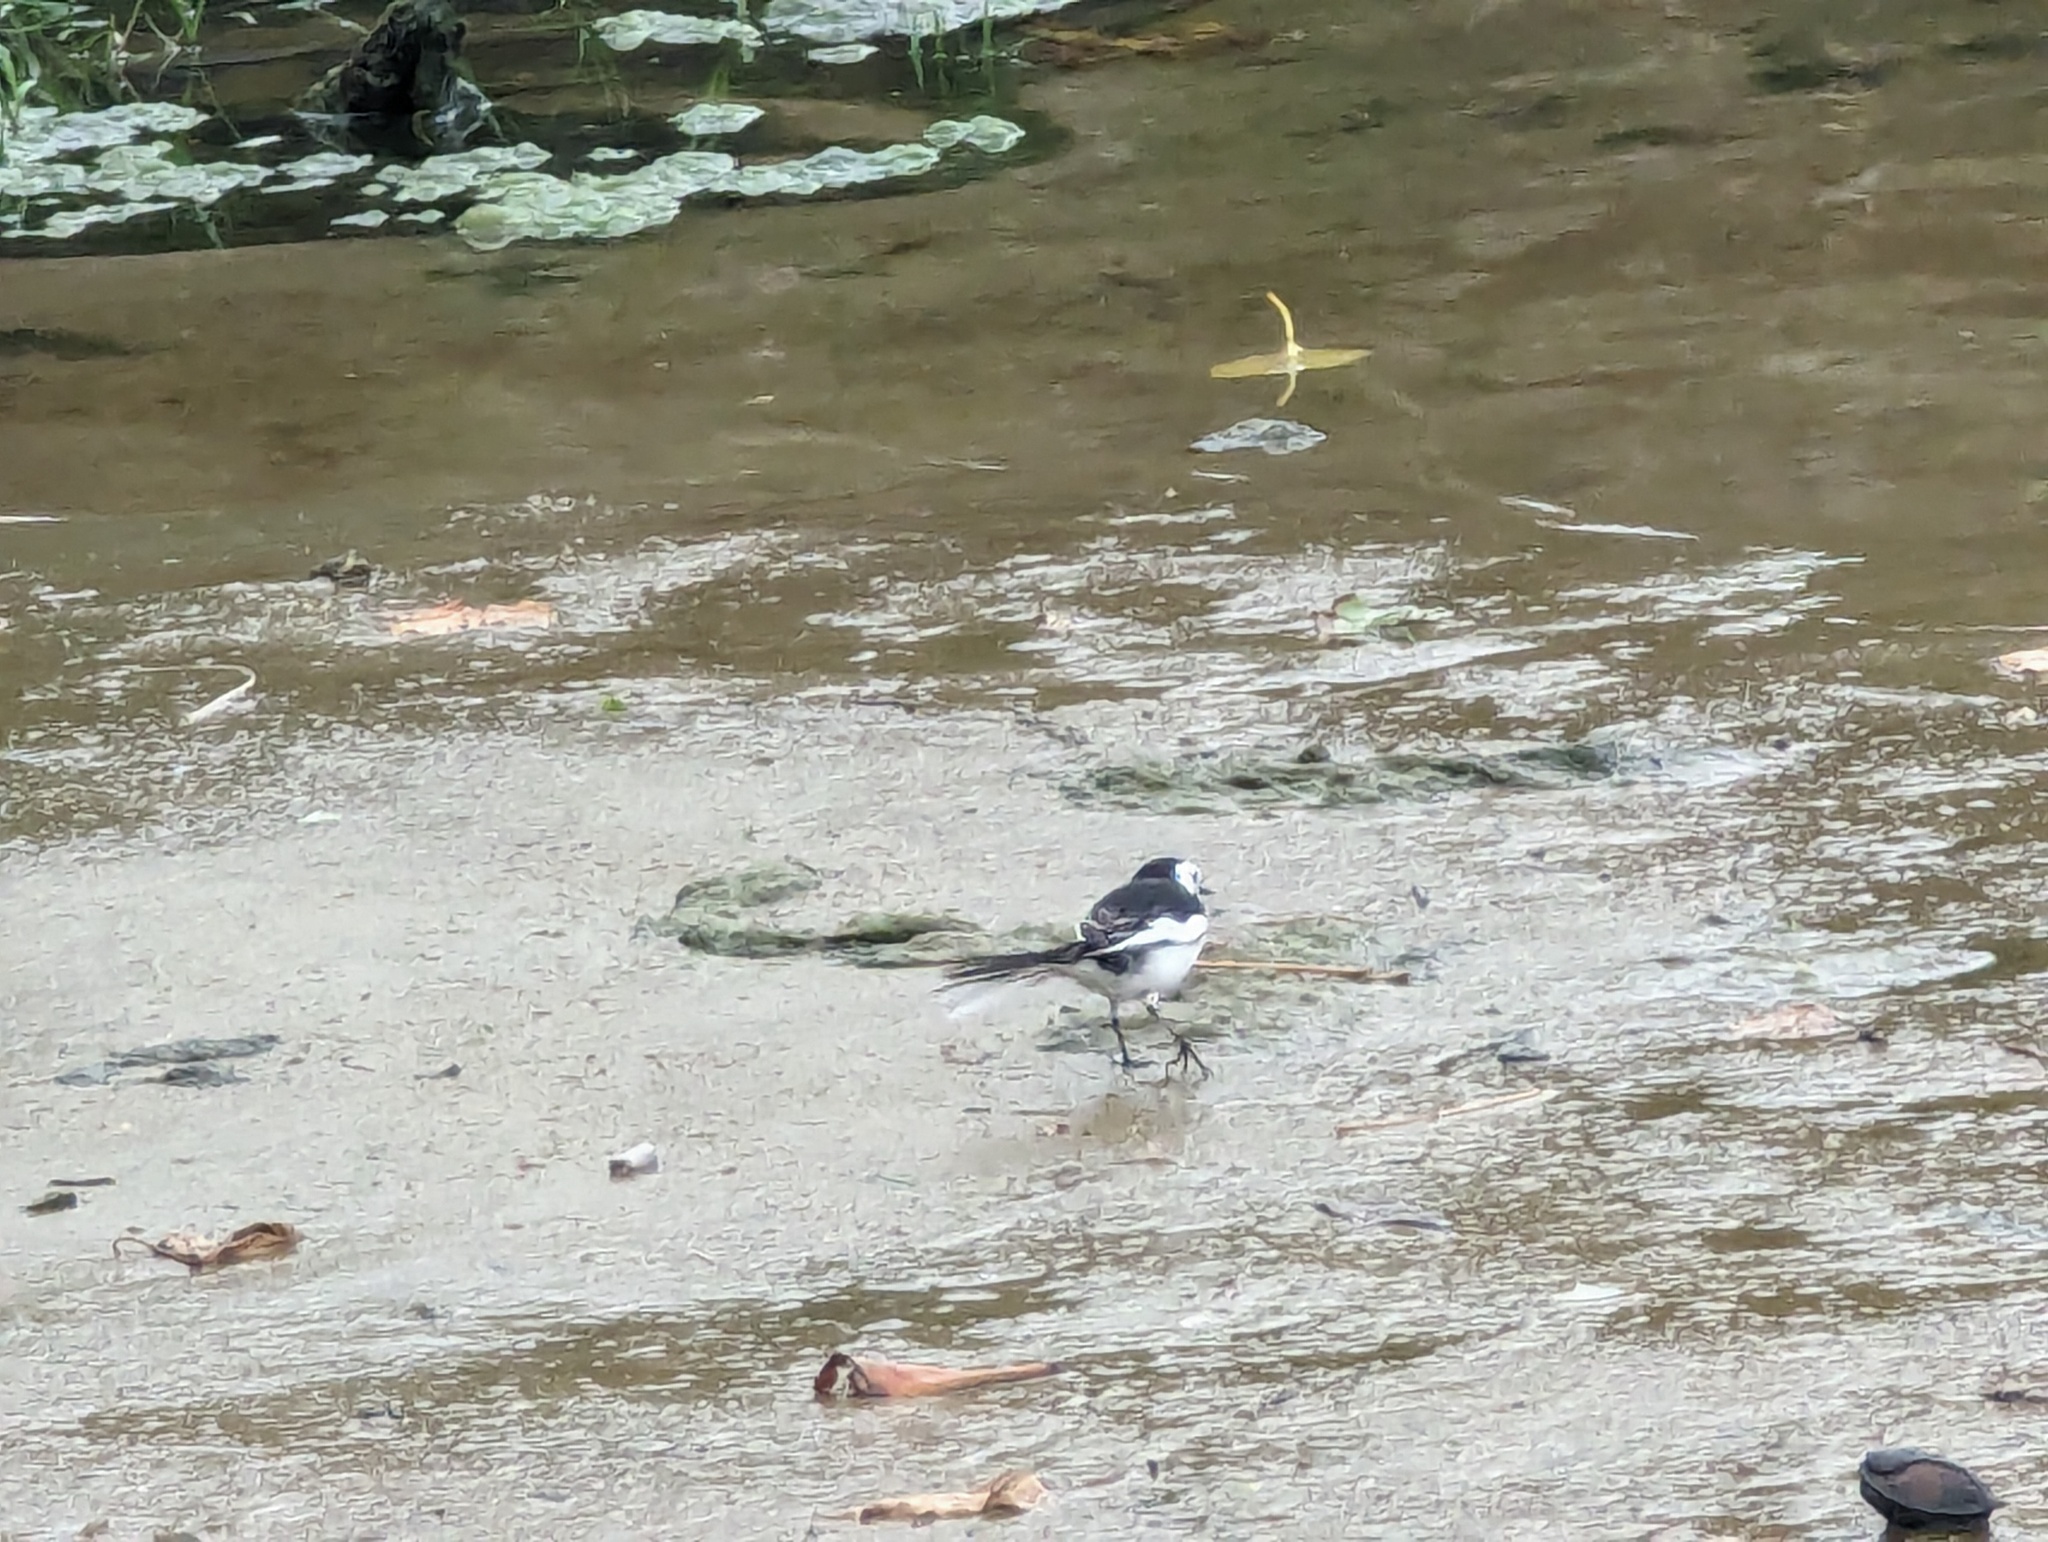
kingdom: Animalia
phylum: Chordata
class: Aves
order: Passeriformes
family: Motacillidae
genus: Motacilla
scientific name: Motacilla alba
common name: White wagtail
